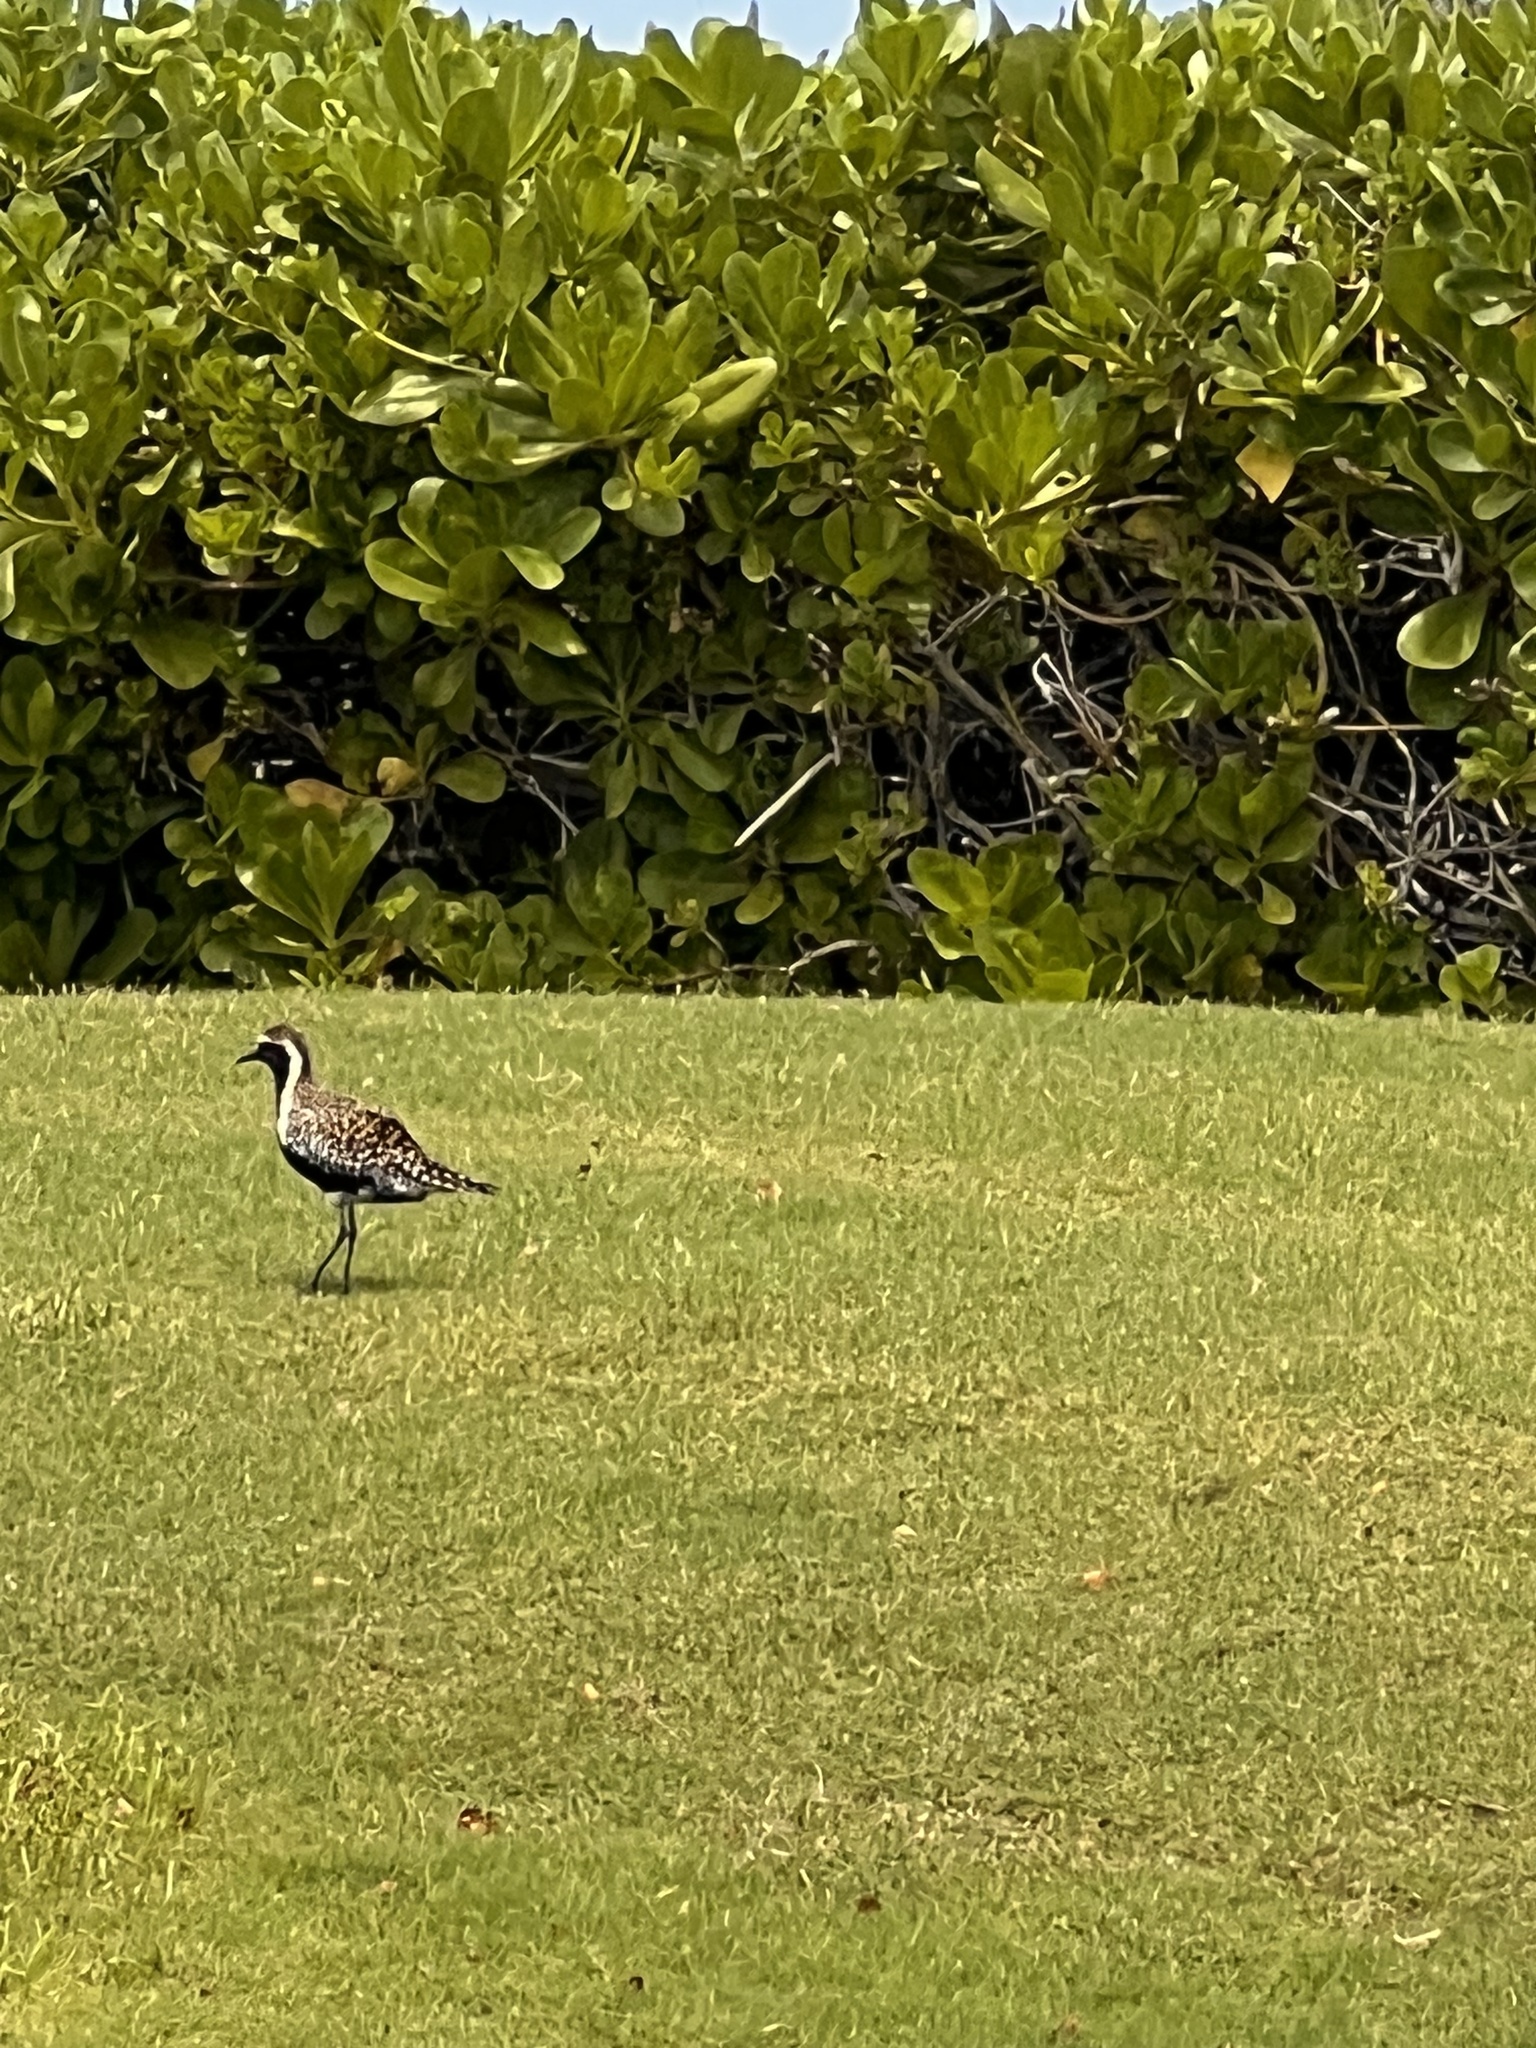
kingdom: Animalia
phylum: Chordata
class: Aves
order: Charadriiformes
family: Charadriidae
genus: Pluvialis
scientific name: Pluvialis fulva
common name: Pacific golden plover
